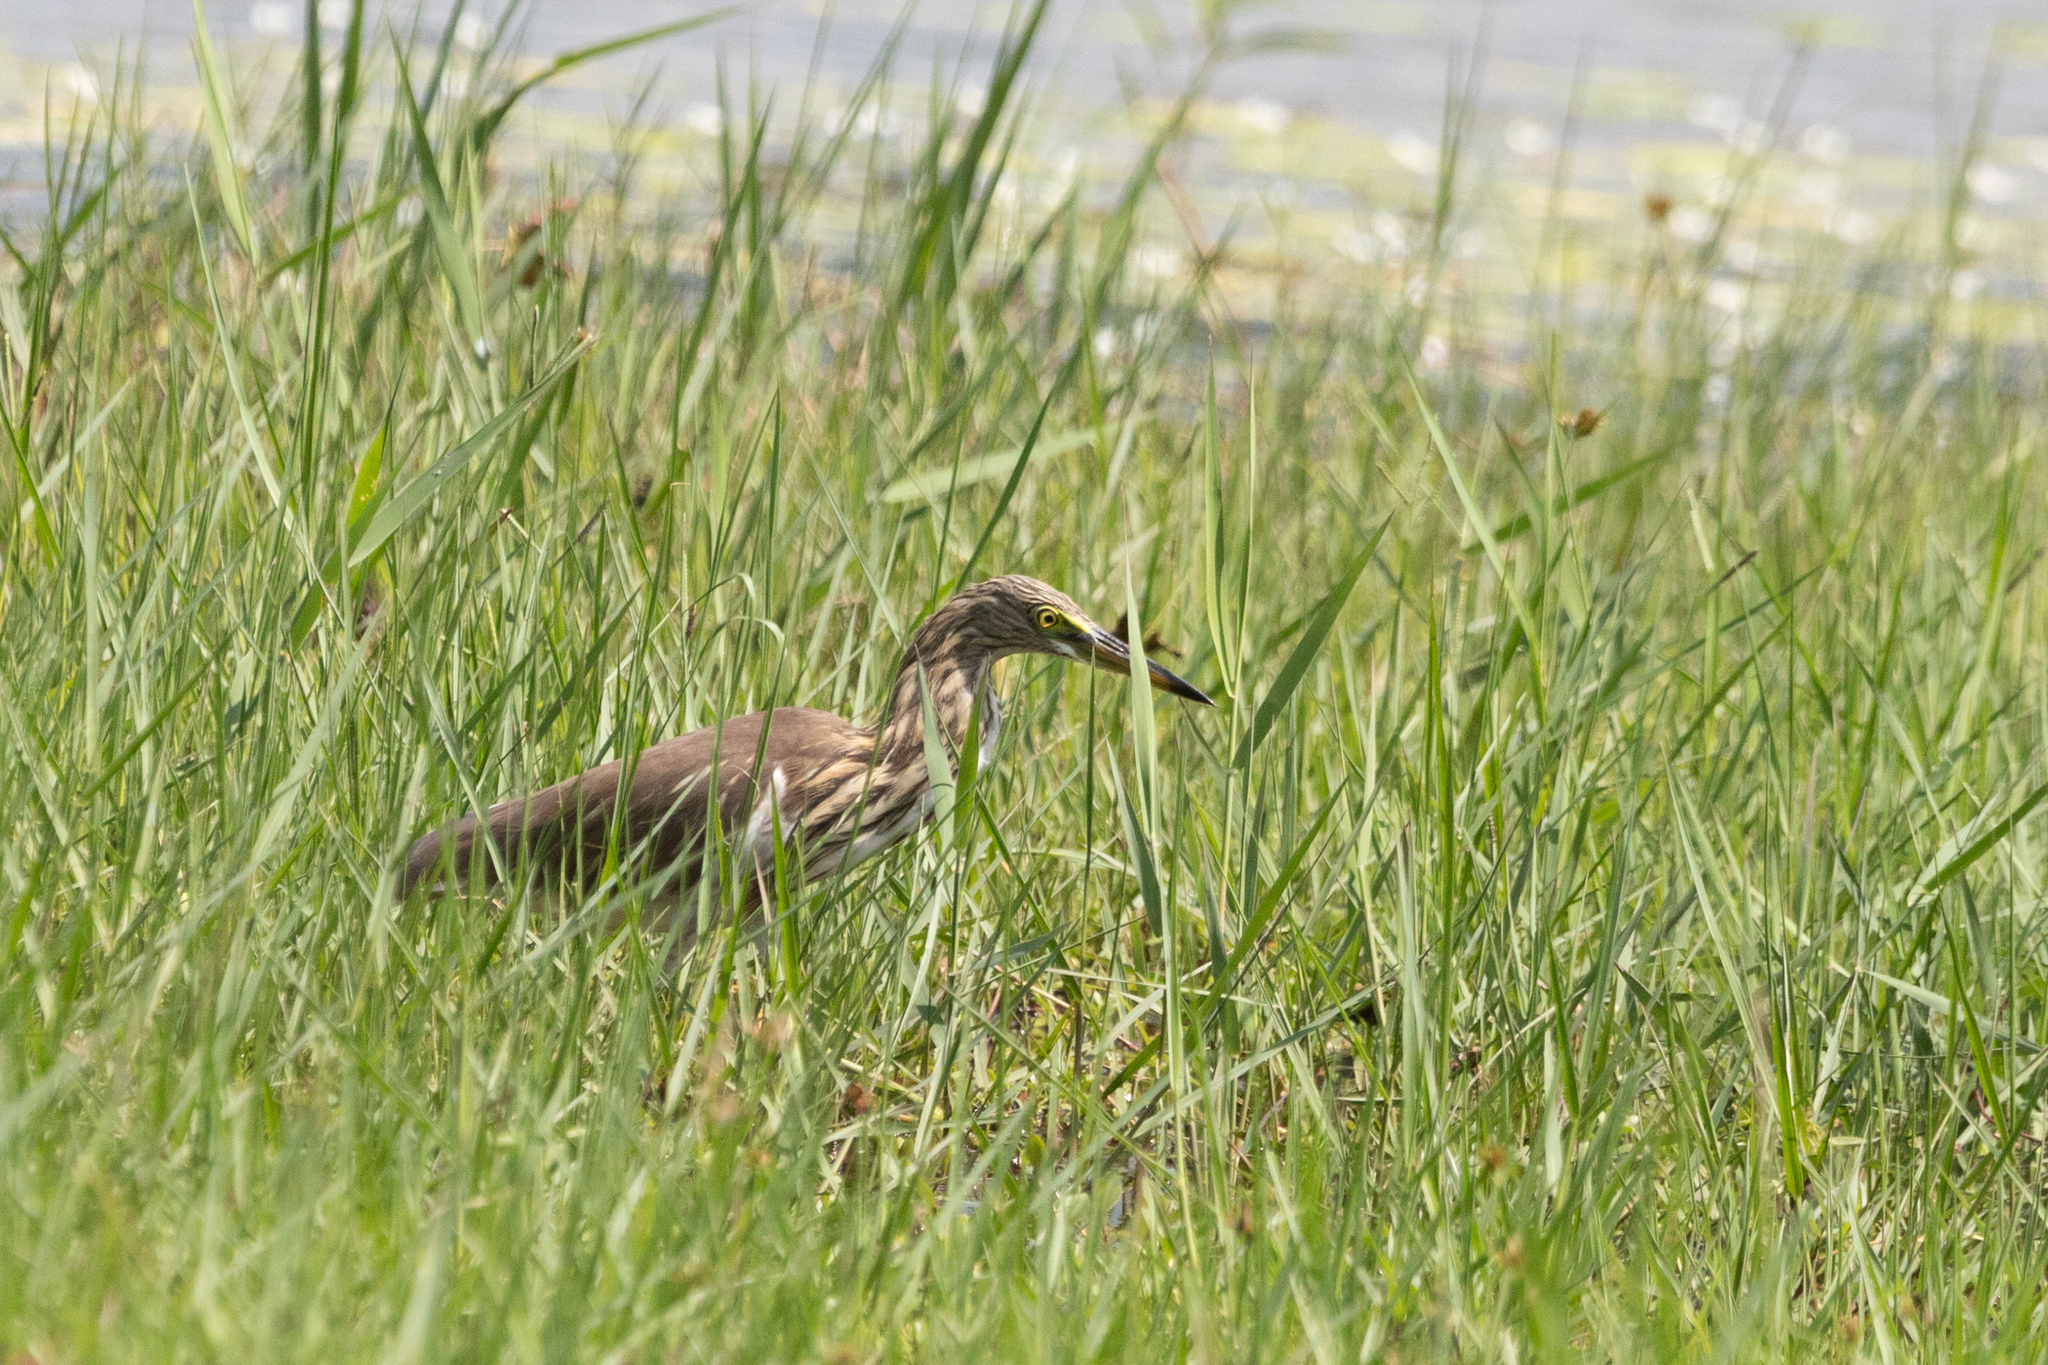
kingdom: Animalia
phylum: Chordata
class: Aves
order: Pelecaniformes
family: Ardeidae
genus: Ardeola
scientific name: Ardeola bacchus
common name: Chinese pond heron
